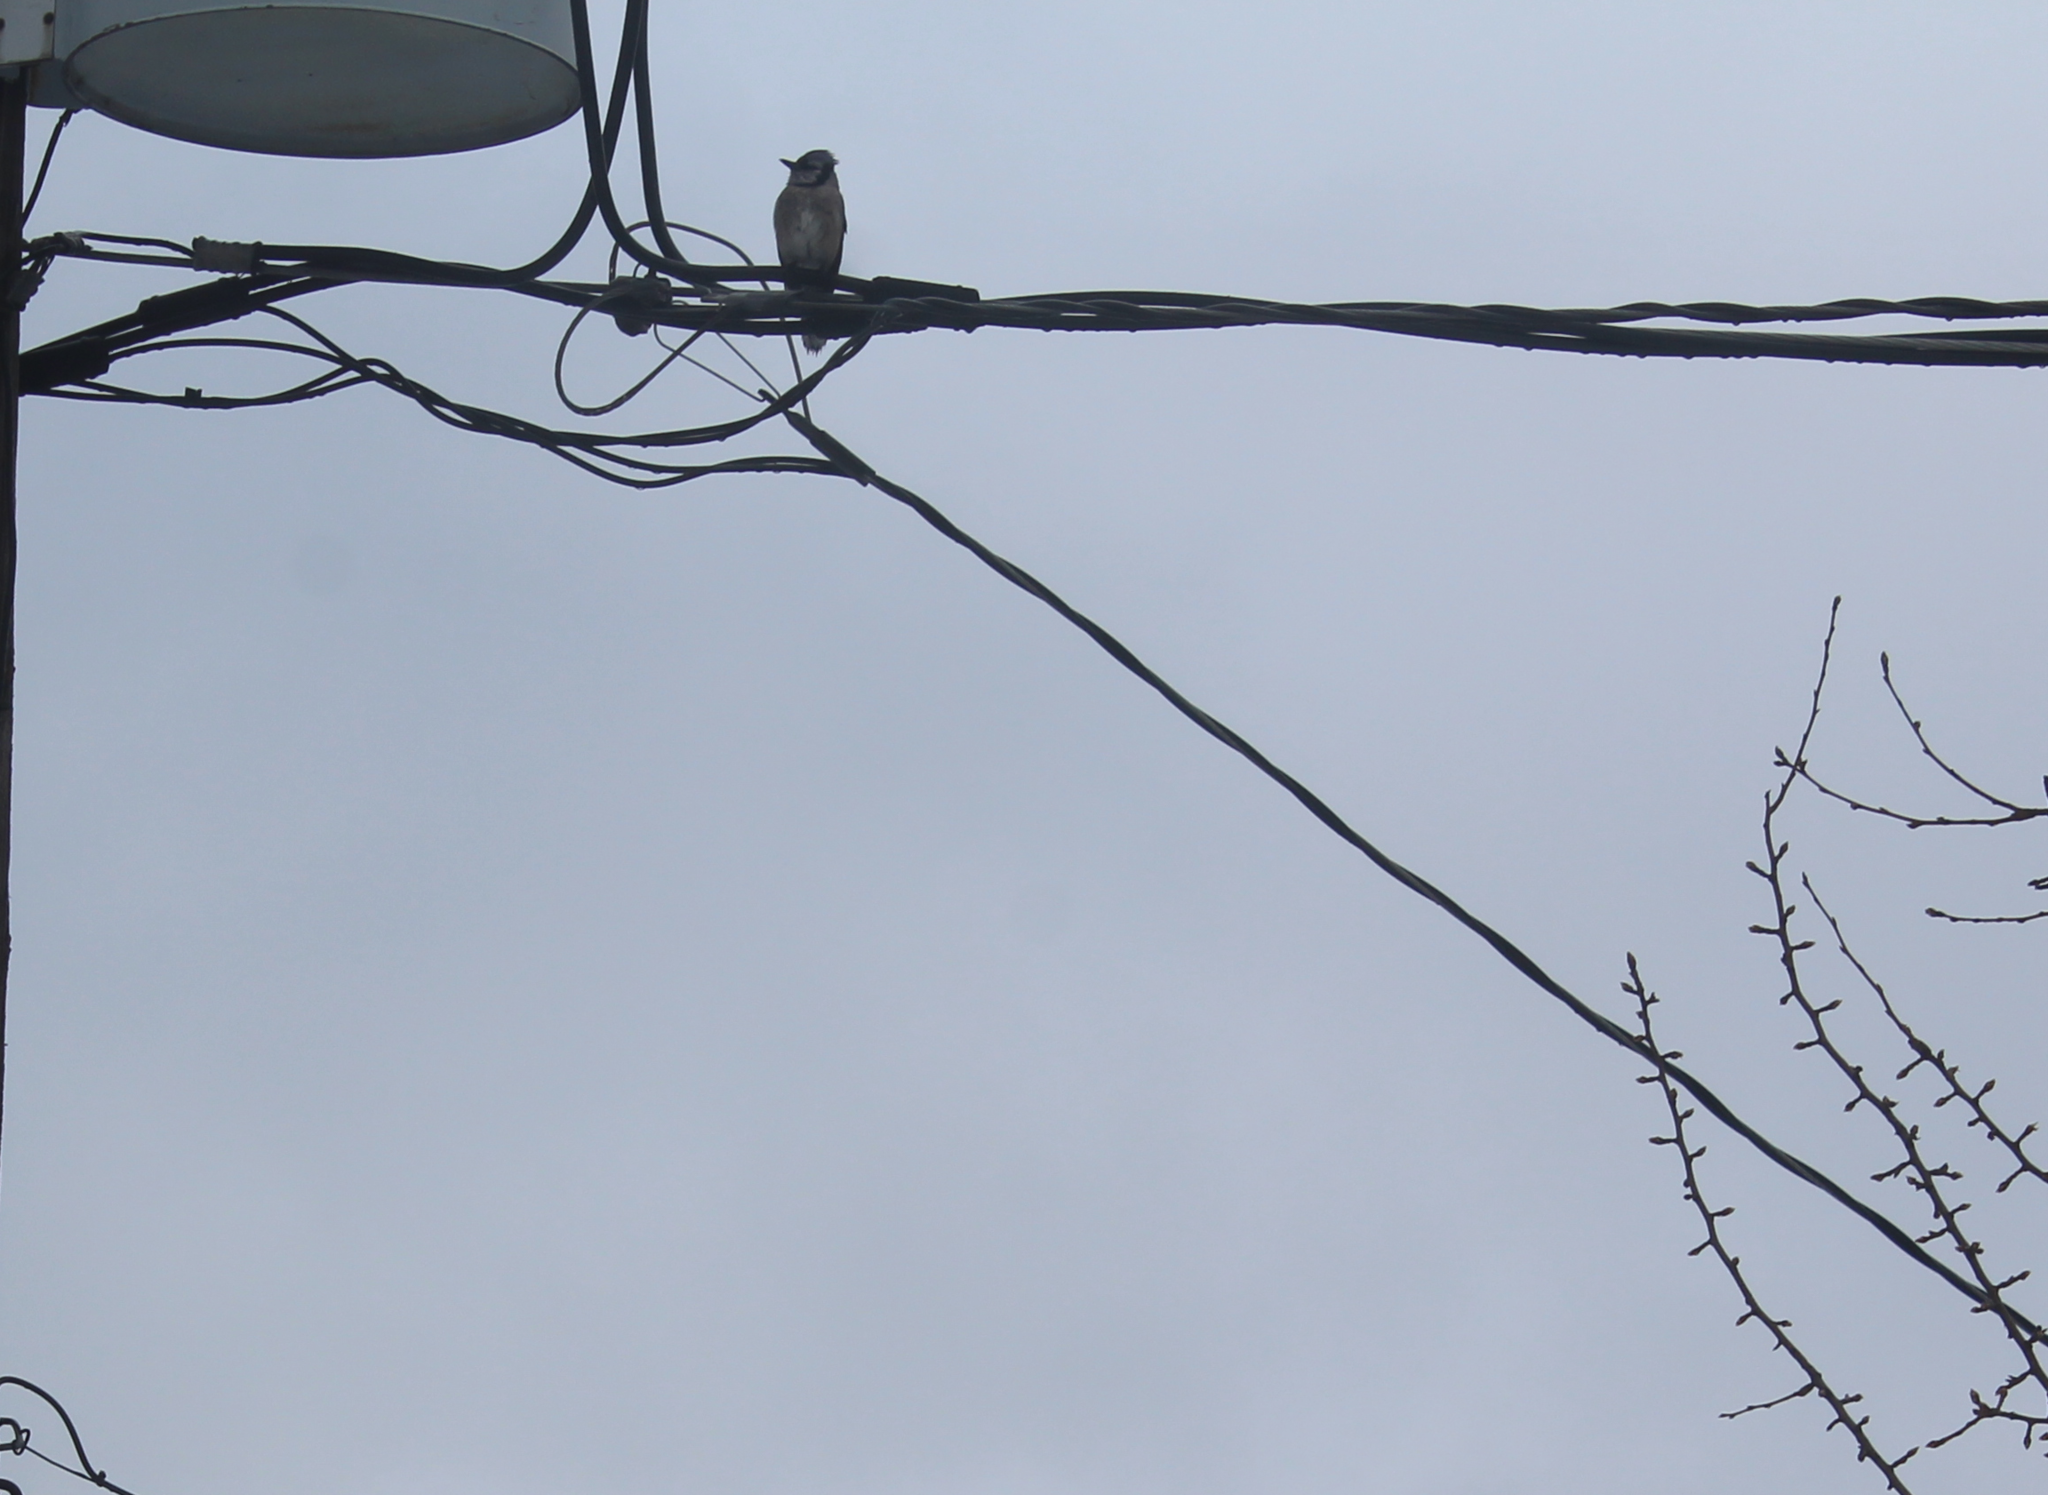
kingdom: Animalia
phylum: Chordata
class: Aves
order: Passeriformes
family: Corvidae
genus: Cyanocitta
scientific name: Cyanocitta cristata
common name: Blue jay
